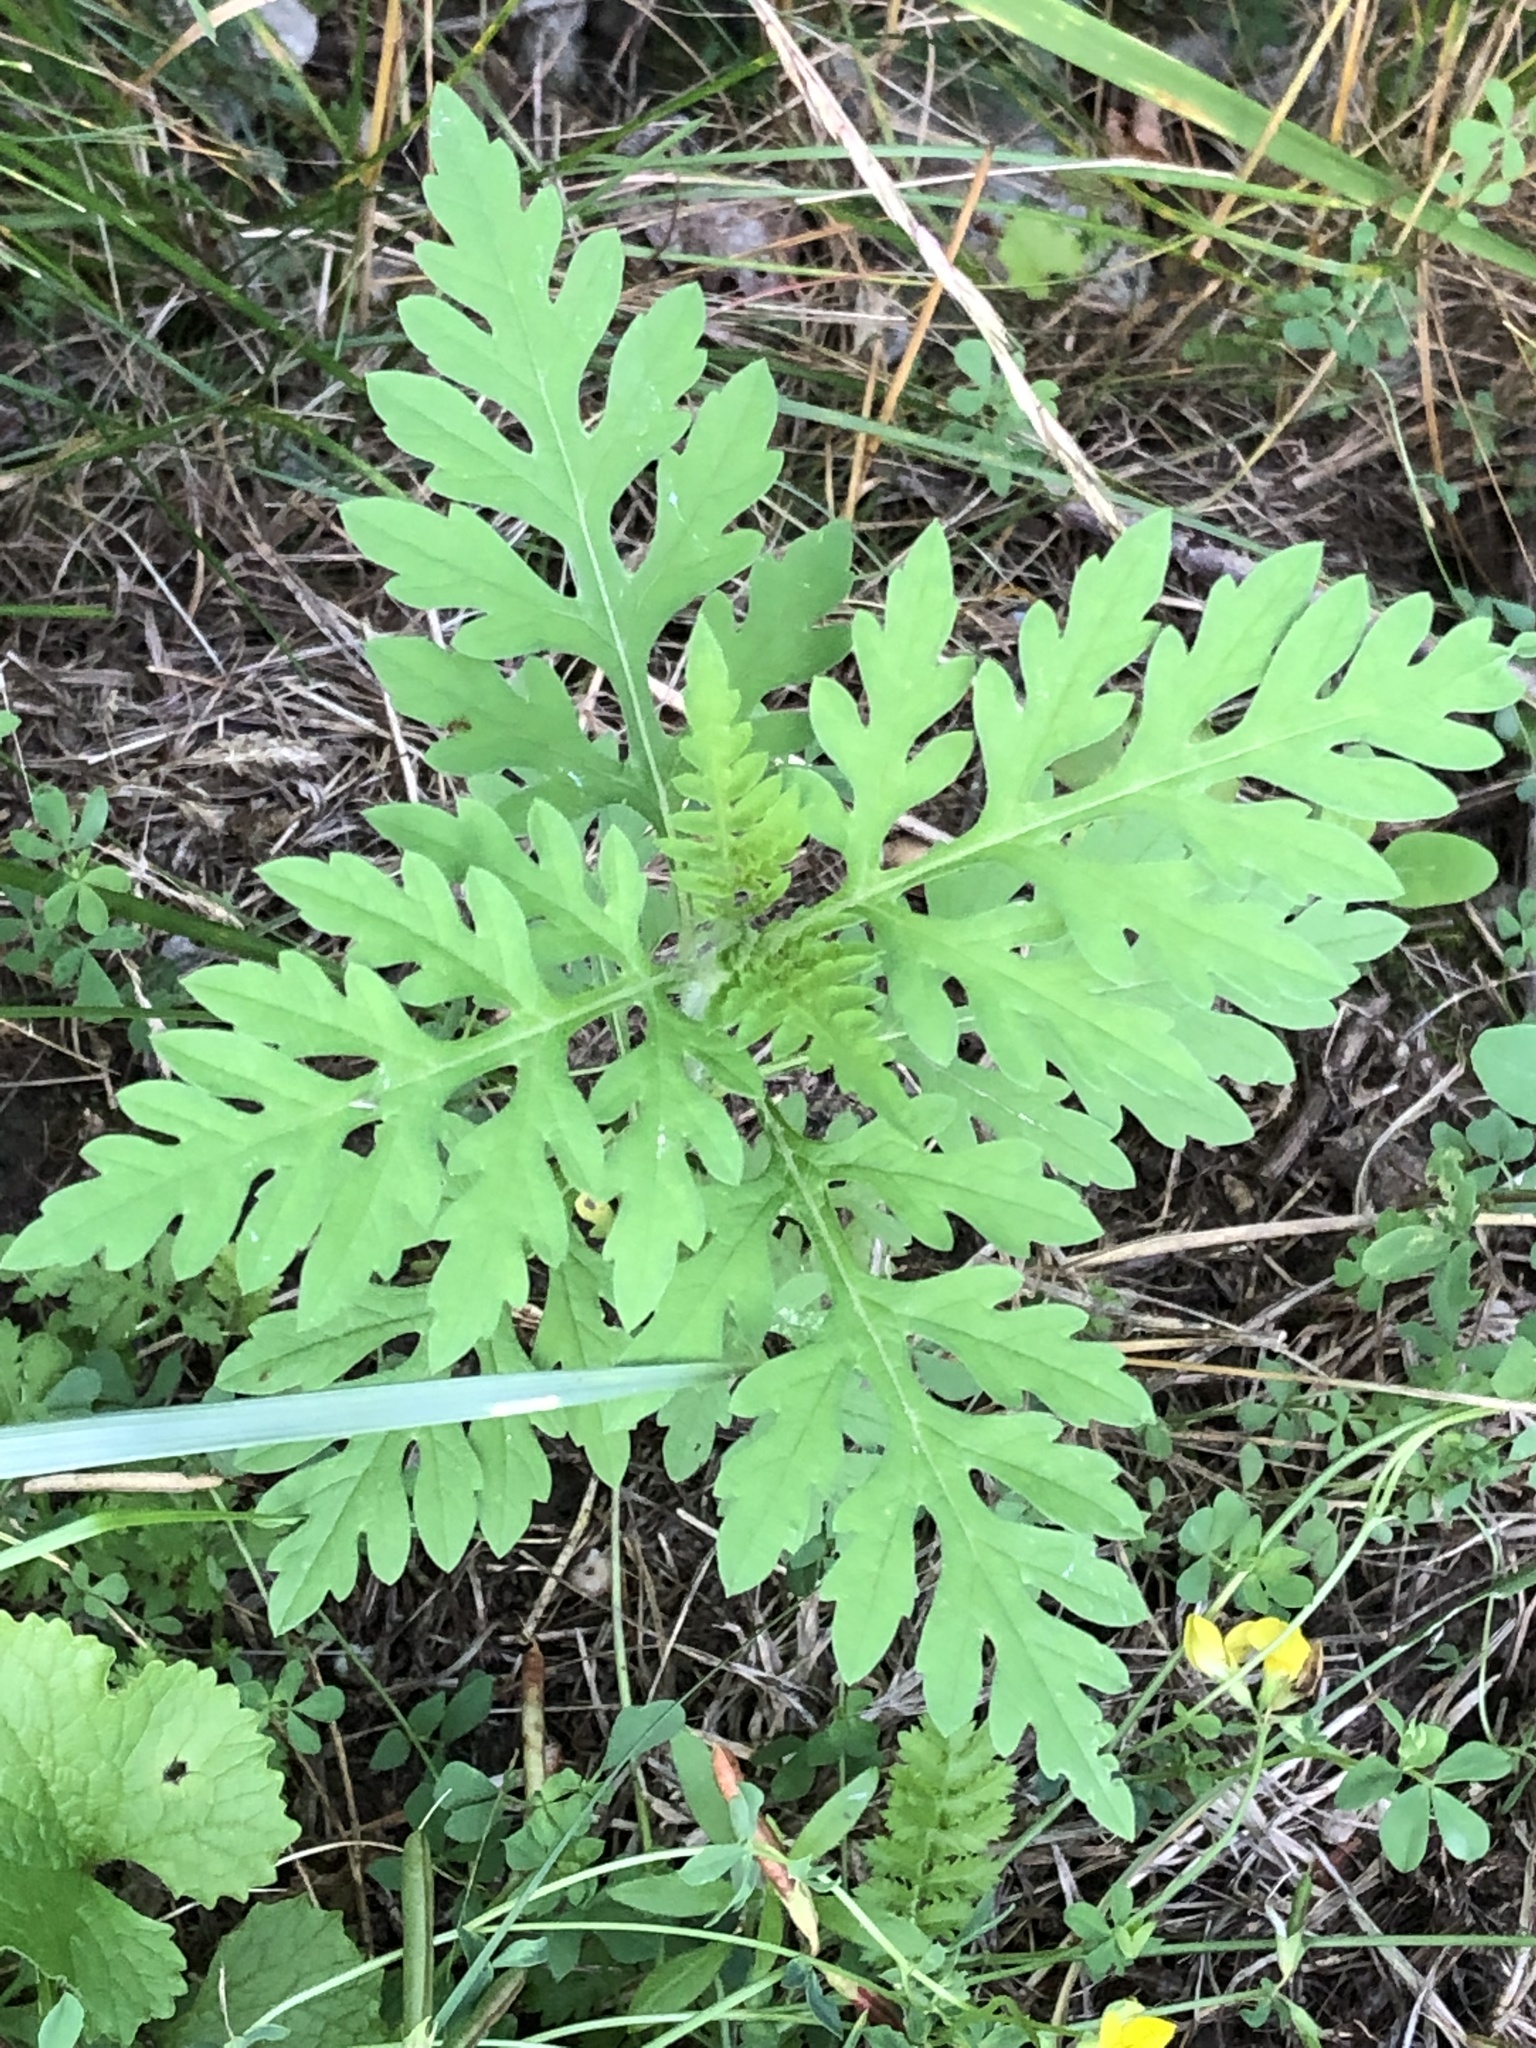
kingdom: Plantae
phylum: Tracheophyta
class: Magnoliopsida
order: Asterales
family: Asteraceae
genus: Ambrosia
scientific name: Ambrosia artemisiifolia
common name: Annual ragweed
